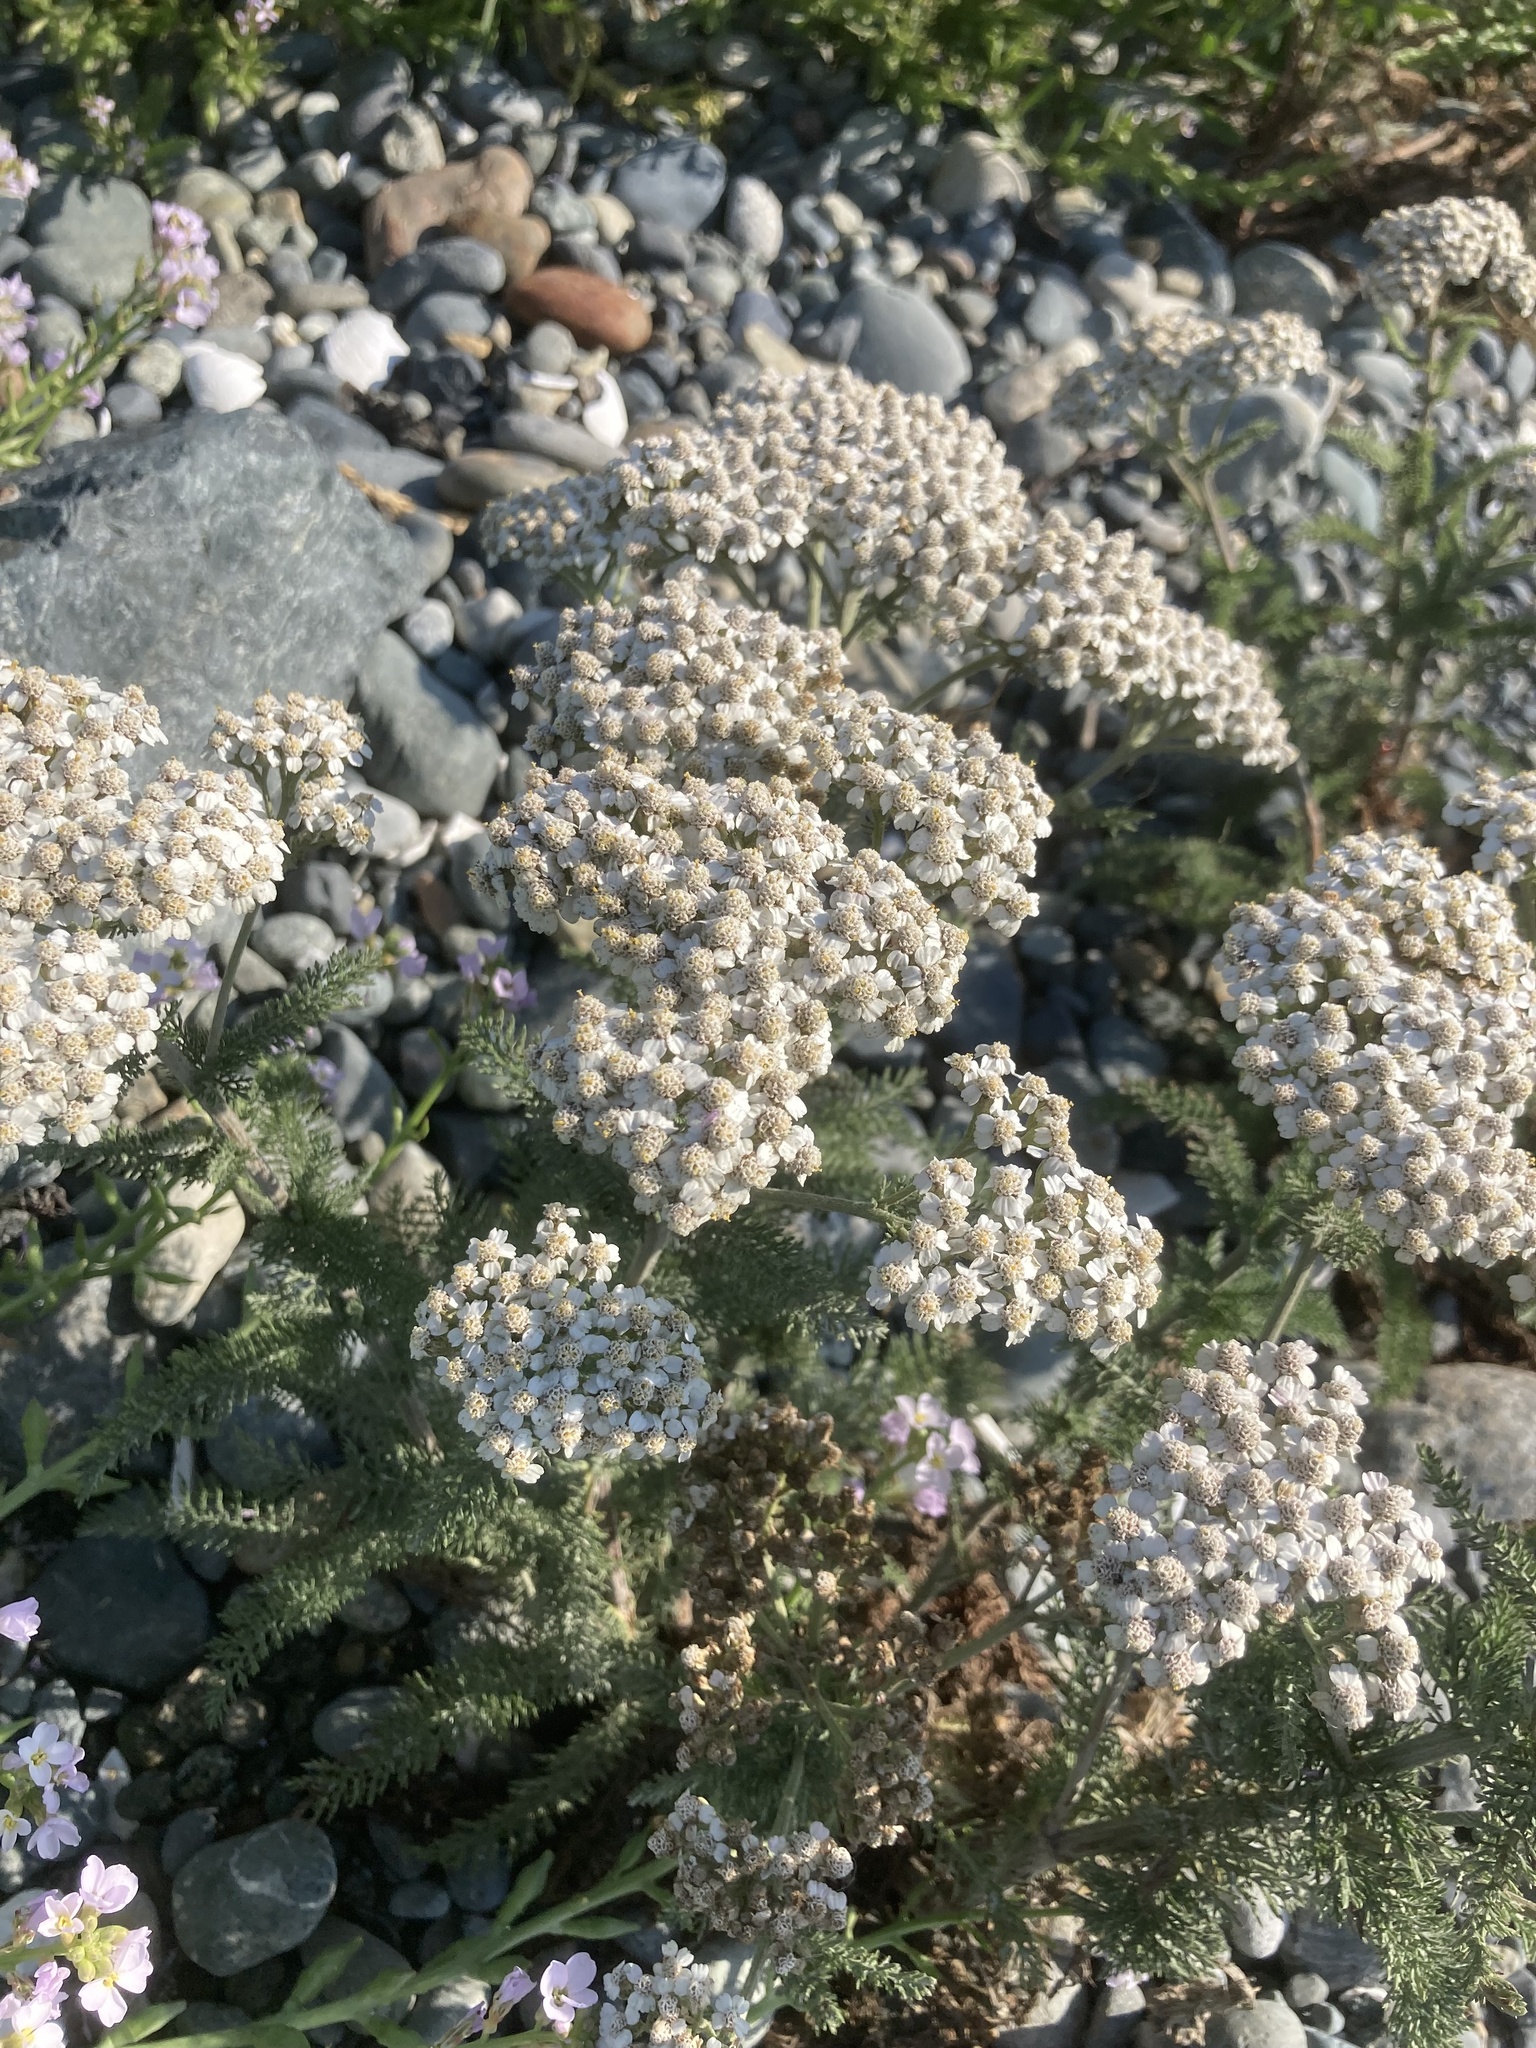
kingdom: Plantae
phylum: Tracheophyta
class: Magnoliopsida
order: Asterales
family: Asteraceae
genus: Achillea
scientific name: Achillea millefolium
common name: Yarrow
